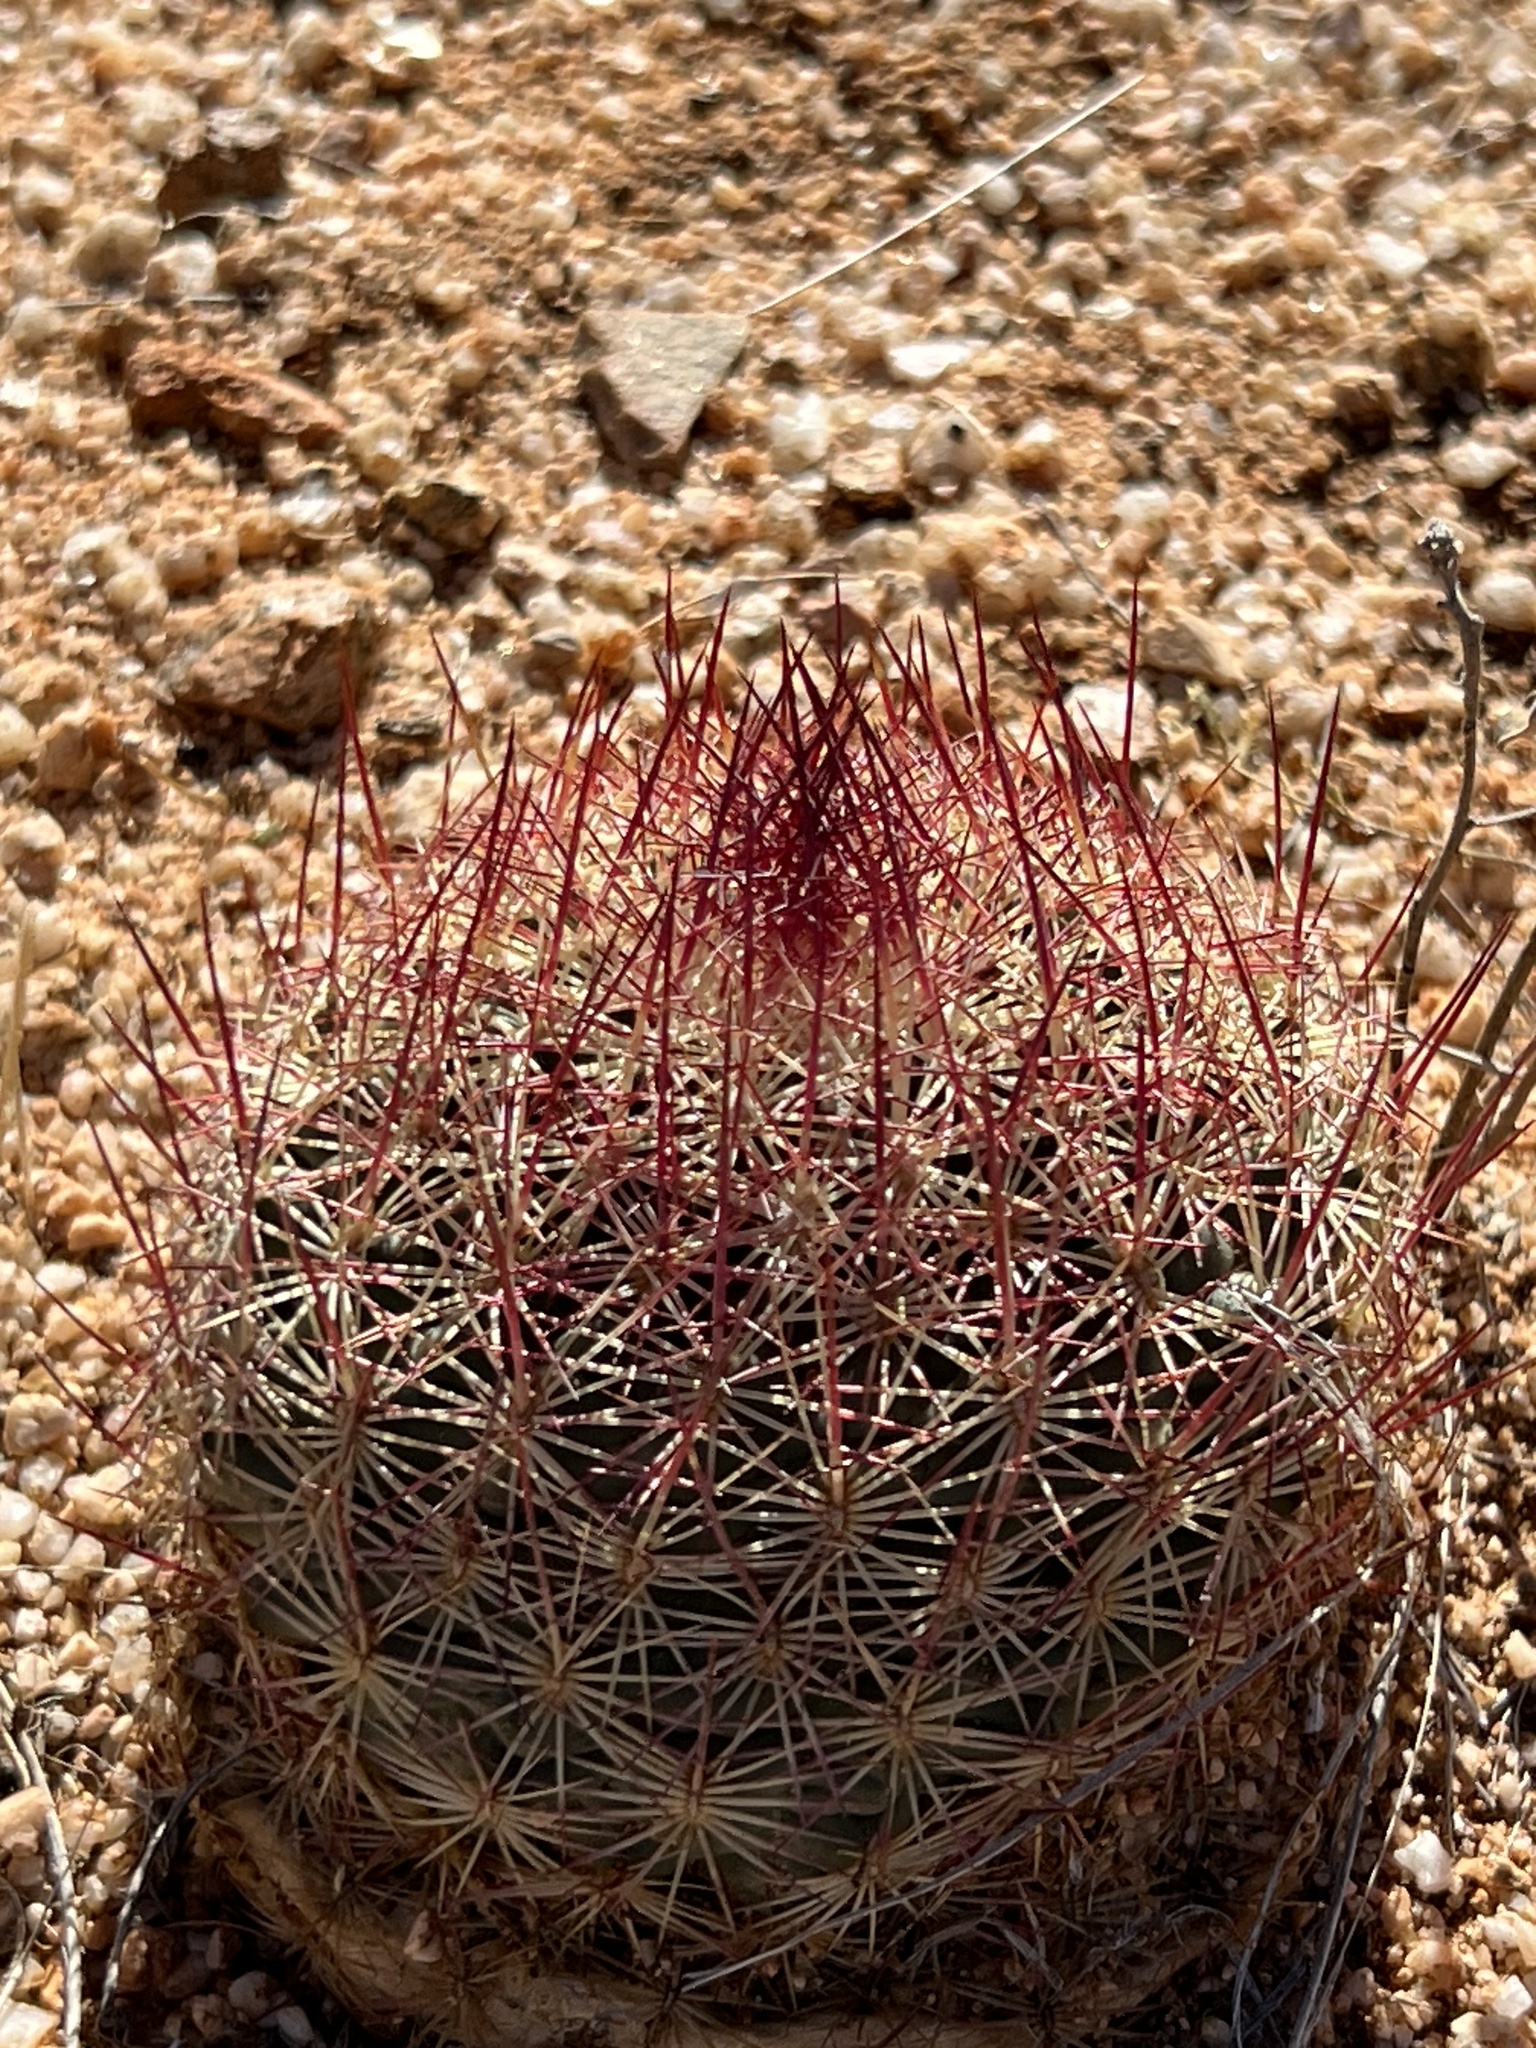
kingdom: Plantae
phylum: Tracheophyta
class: Magnoliopsida
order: Caryophyllales
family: Cactaceae
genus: Sclerocactus
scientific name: Sclerocactus johnsonii
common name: Eight-spine fishhook cactus
